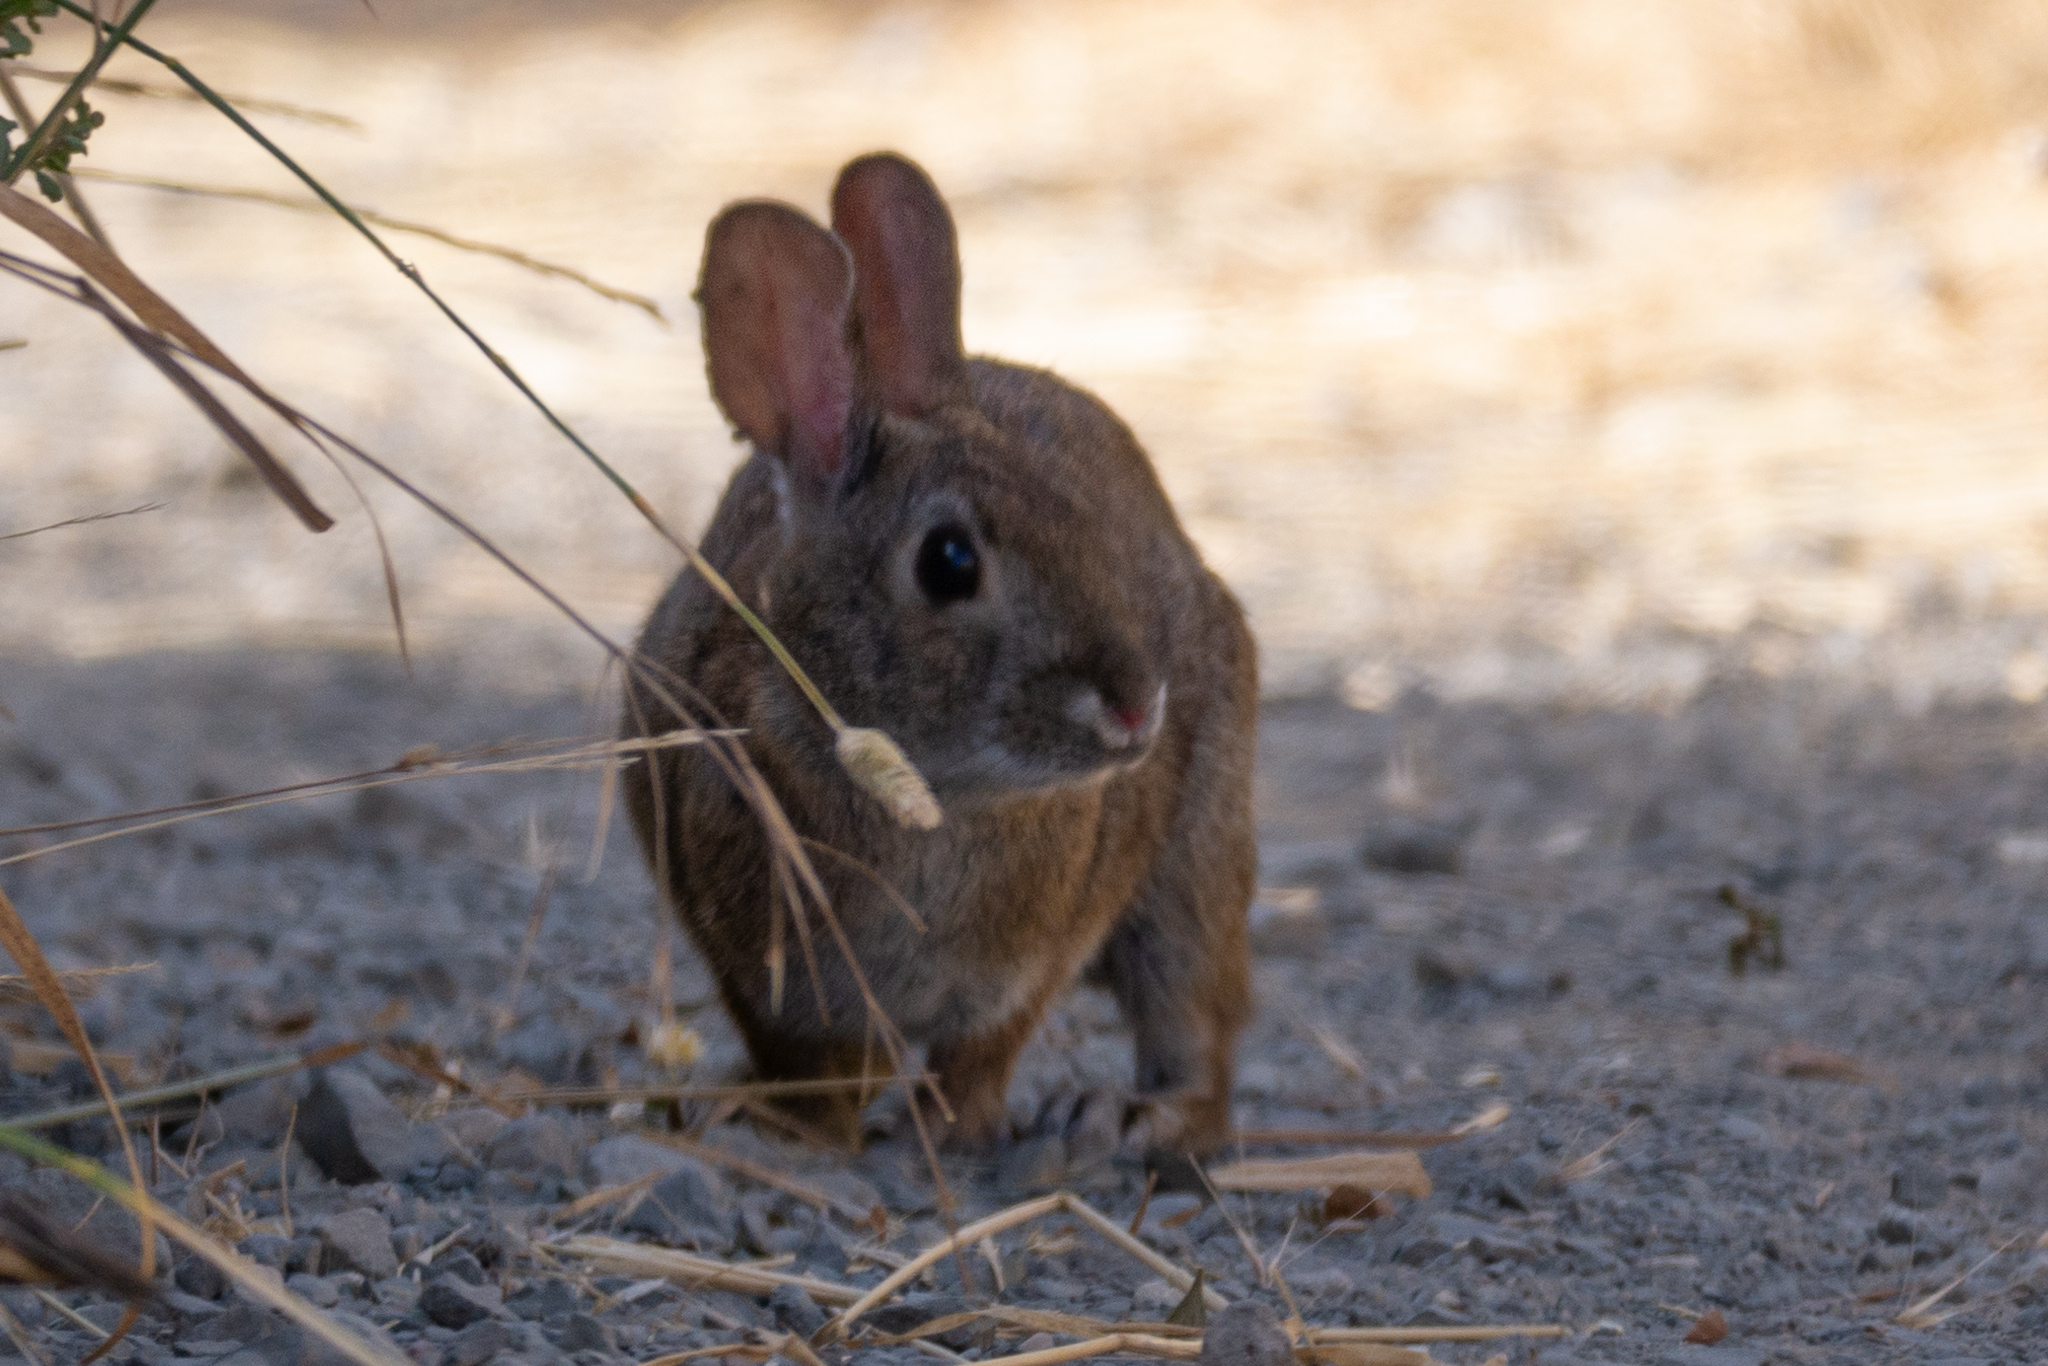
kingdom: Animalia
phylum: Chordata
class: Mammalia
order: Lagomorpha
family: Leporidae
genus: Sylvilagus
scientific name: Sylvilagus bachmani
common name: Brush rabbit
